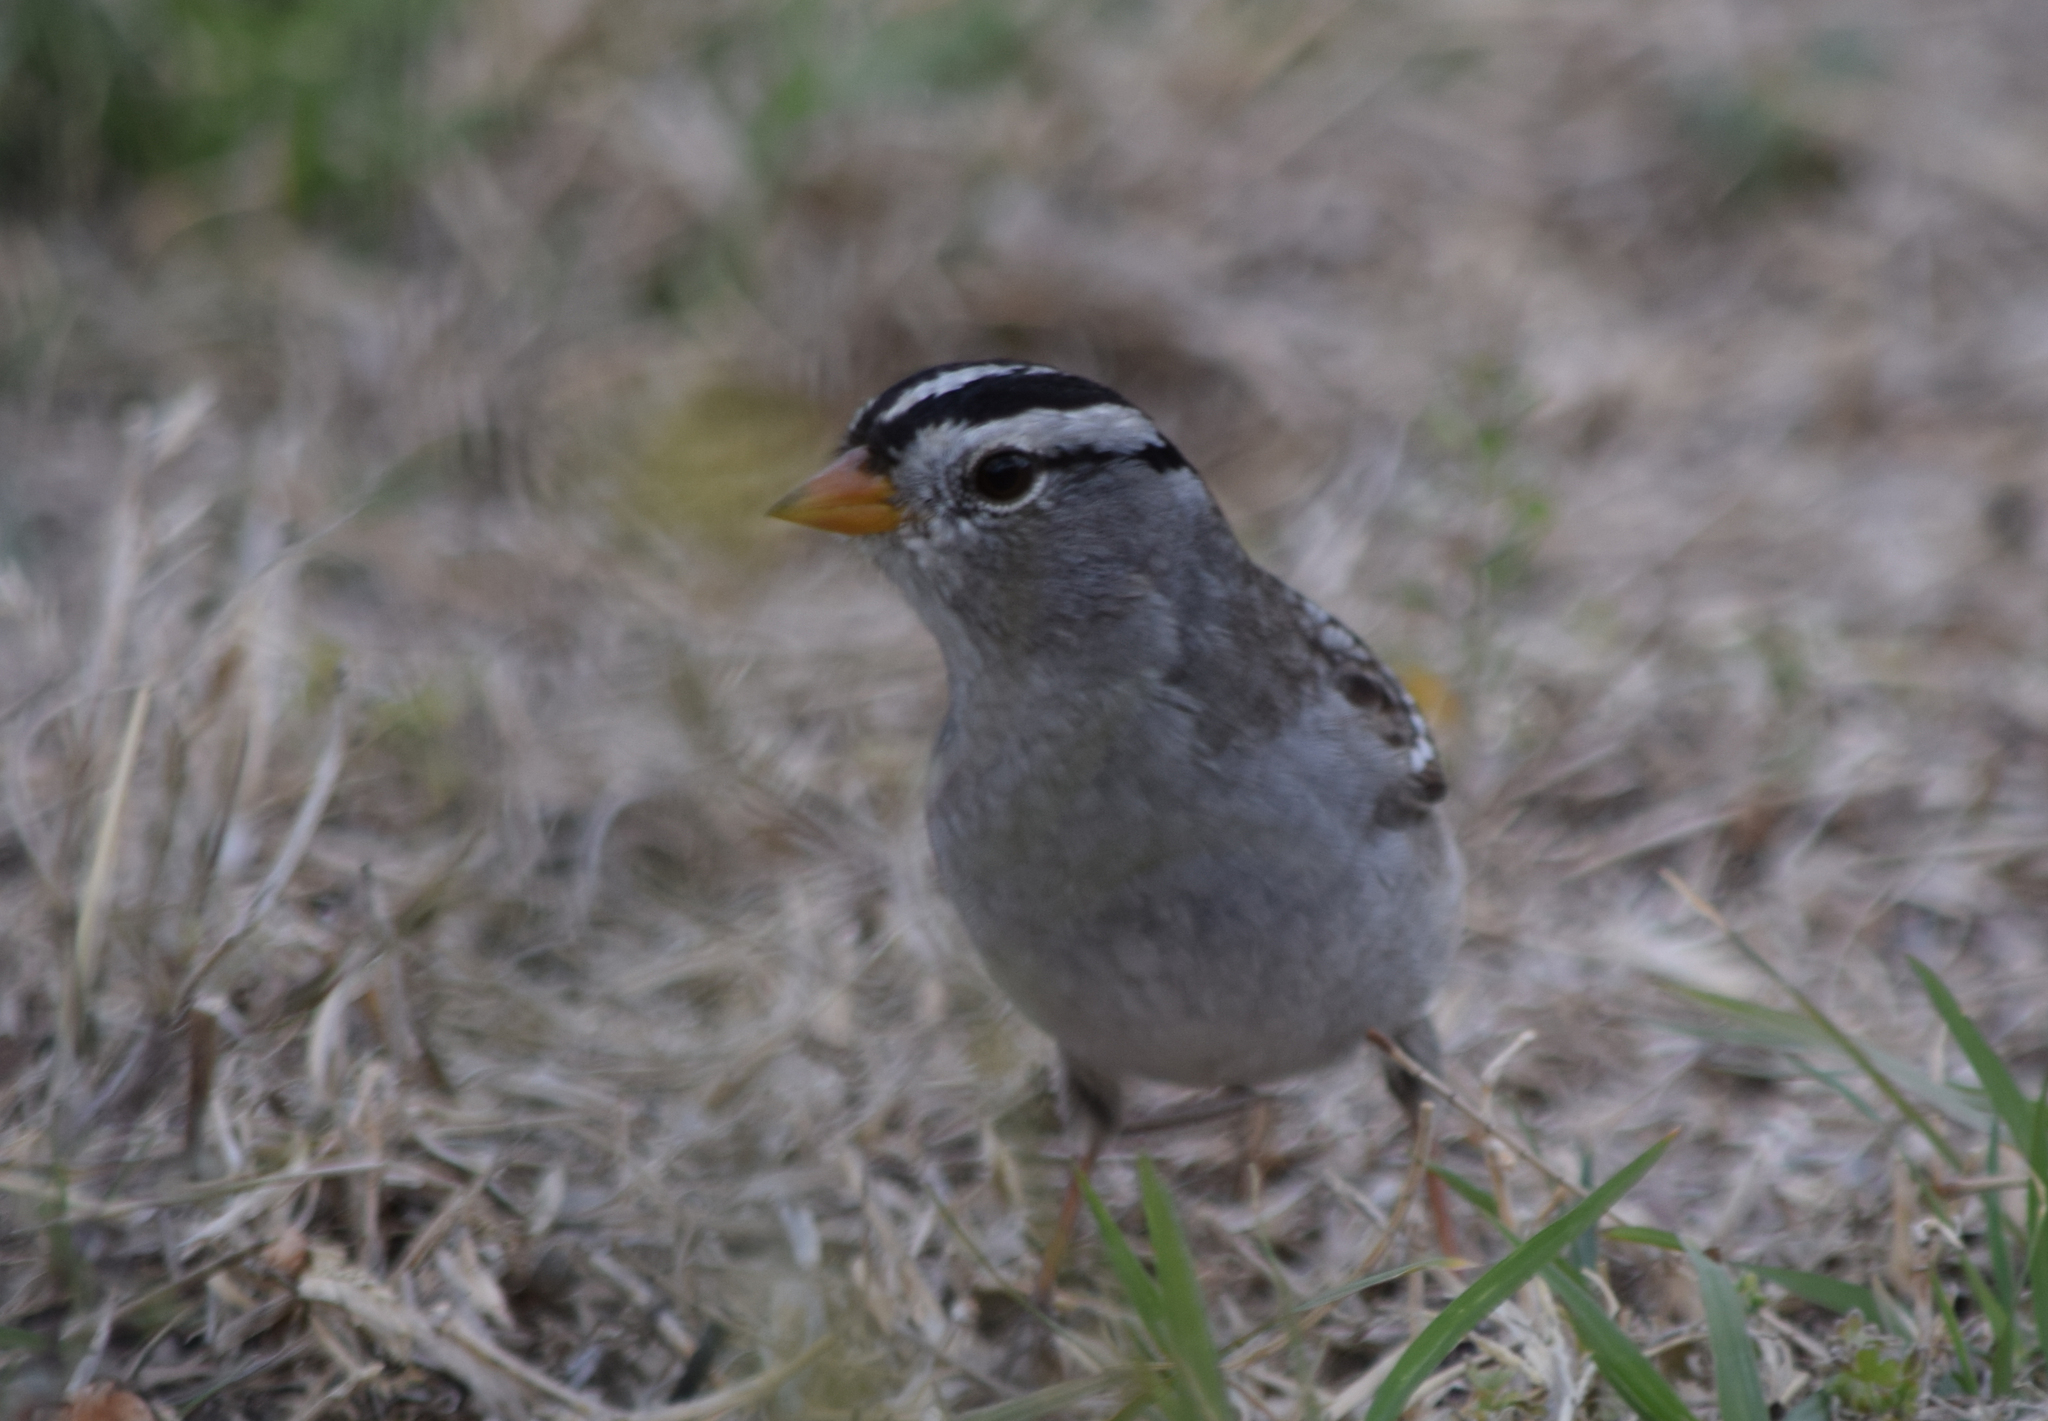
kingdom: Animalia
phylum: Chordata
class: Aves
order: Passeriformes
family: Passerellidae
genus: Zonotrichia
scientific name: Zonotrichia leucophrys
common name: White-crowned sparrow
